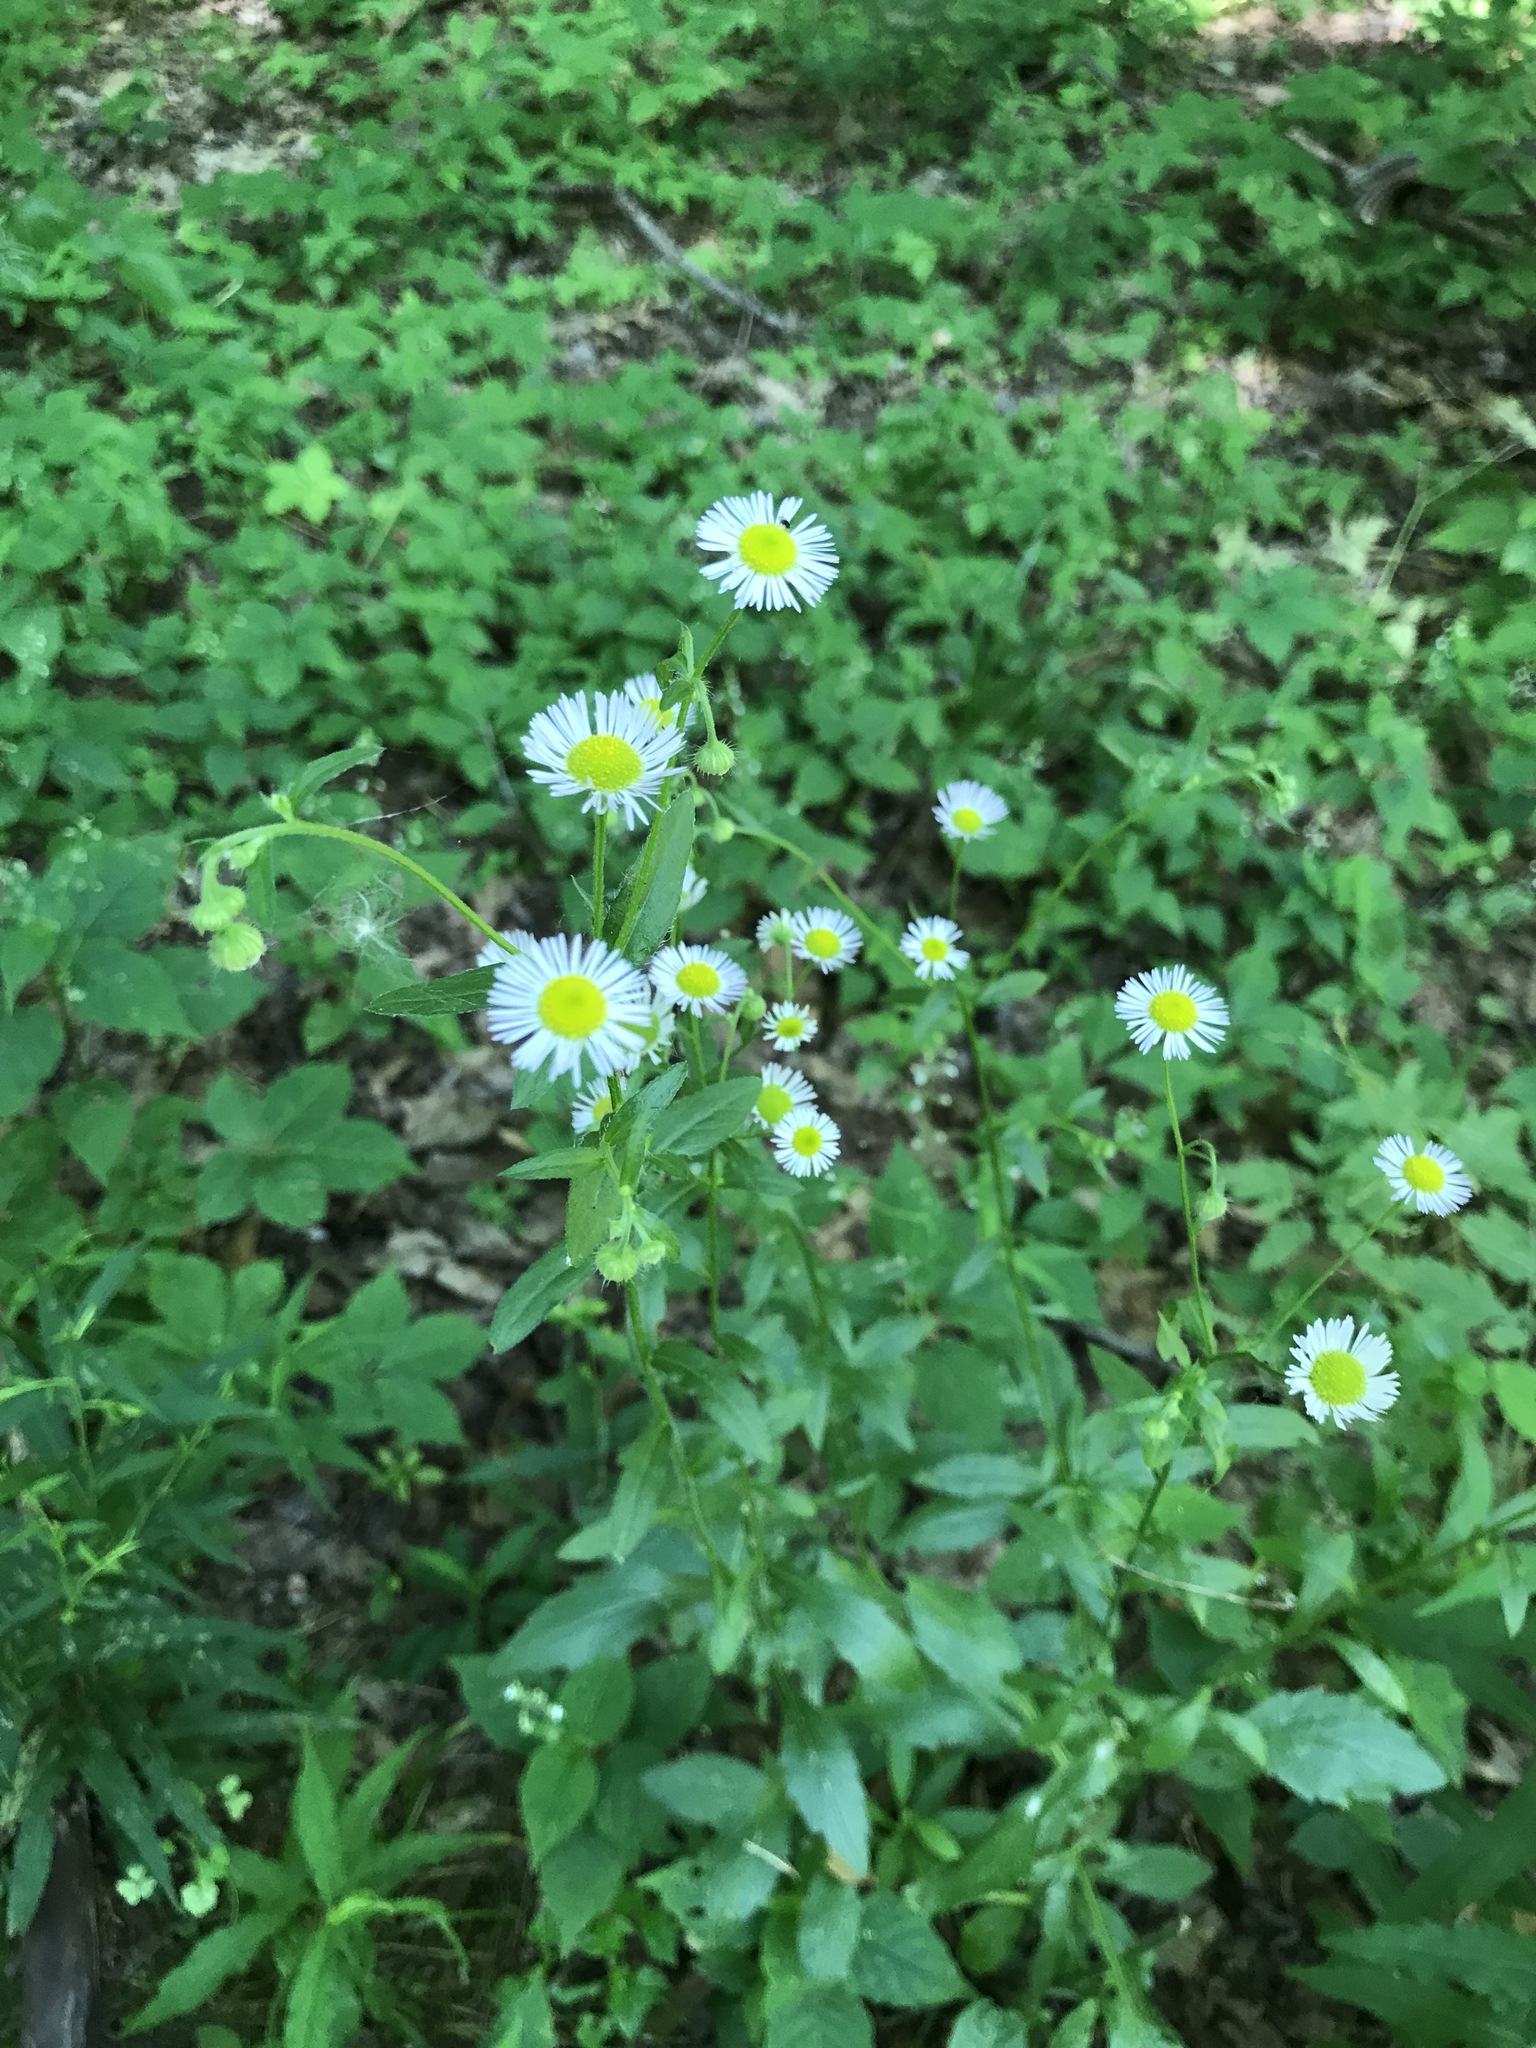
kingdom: Plantae
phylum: Tracheophyta
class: Magnoliopsida
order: Asterales
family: Asteraceae
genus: Erigeron
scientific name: Erigeron strigosus
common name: Common eastern fleabane
